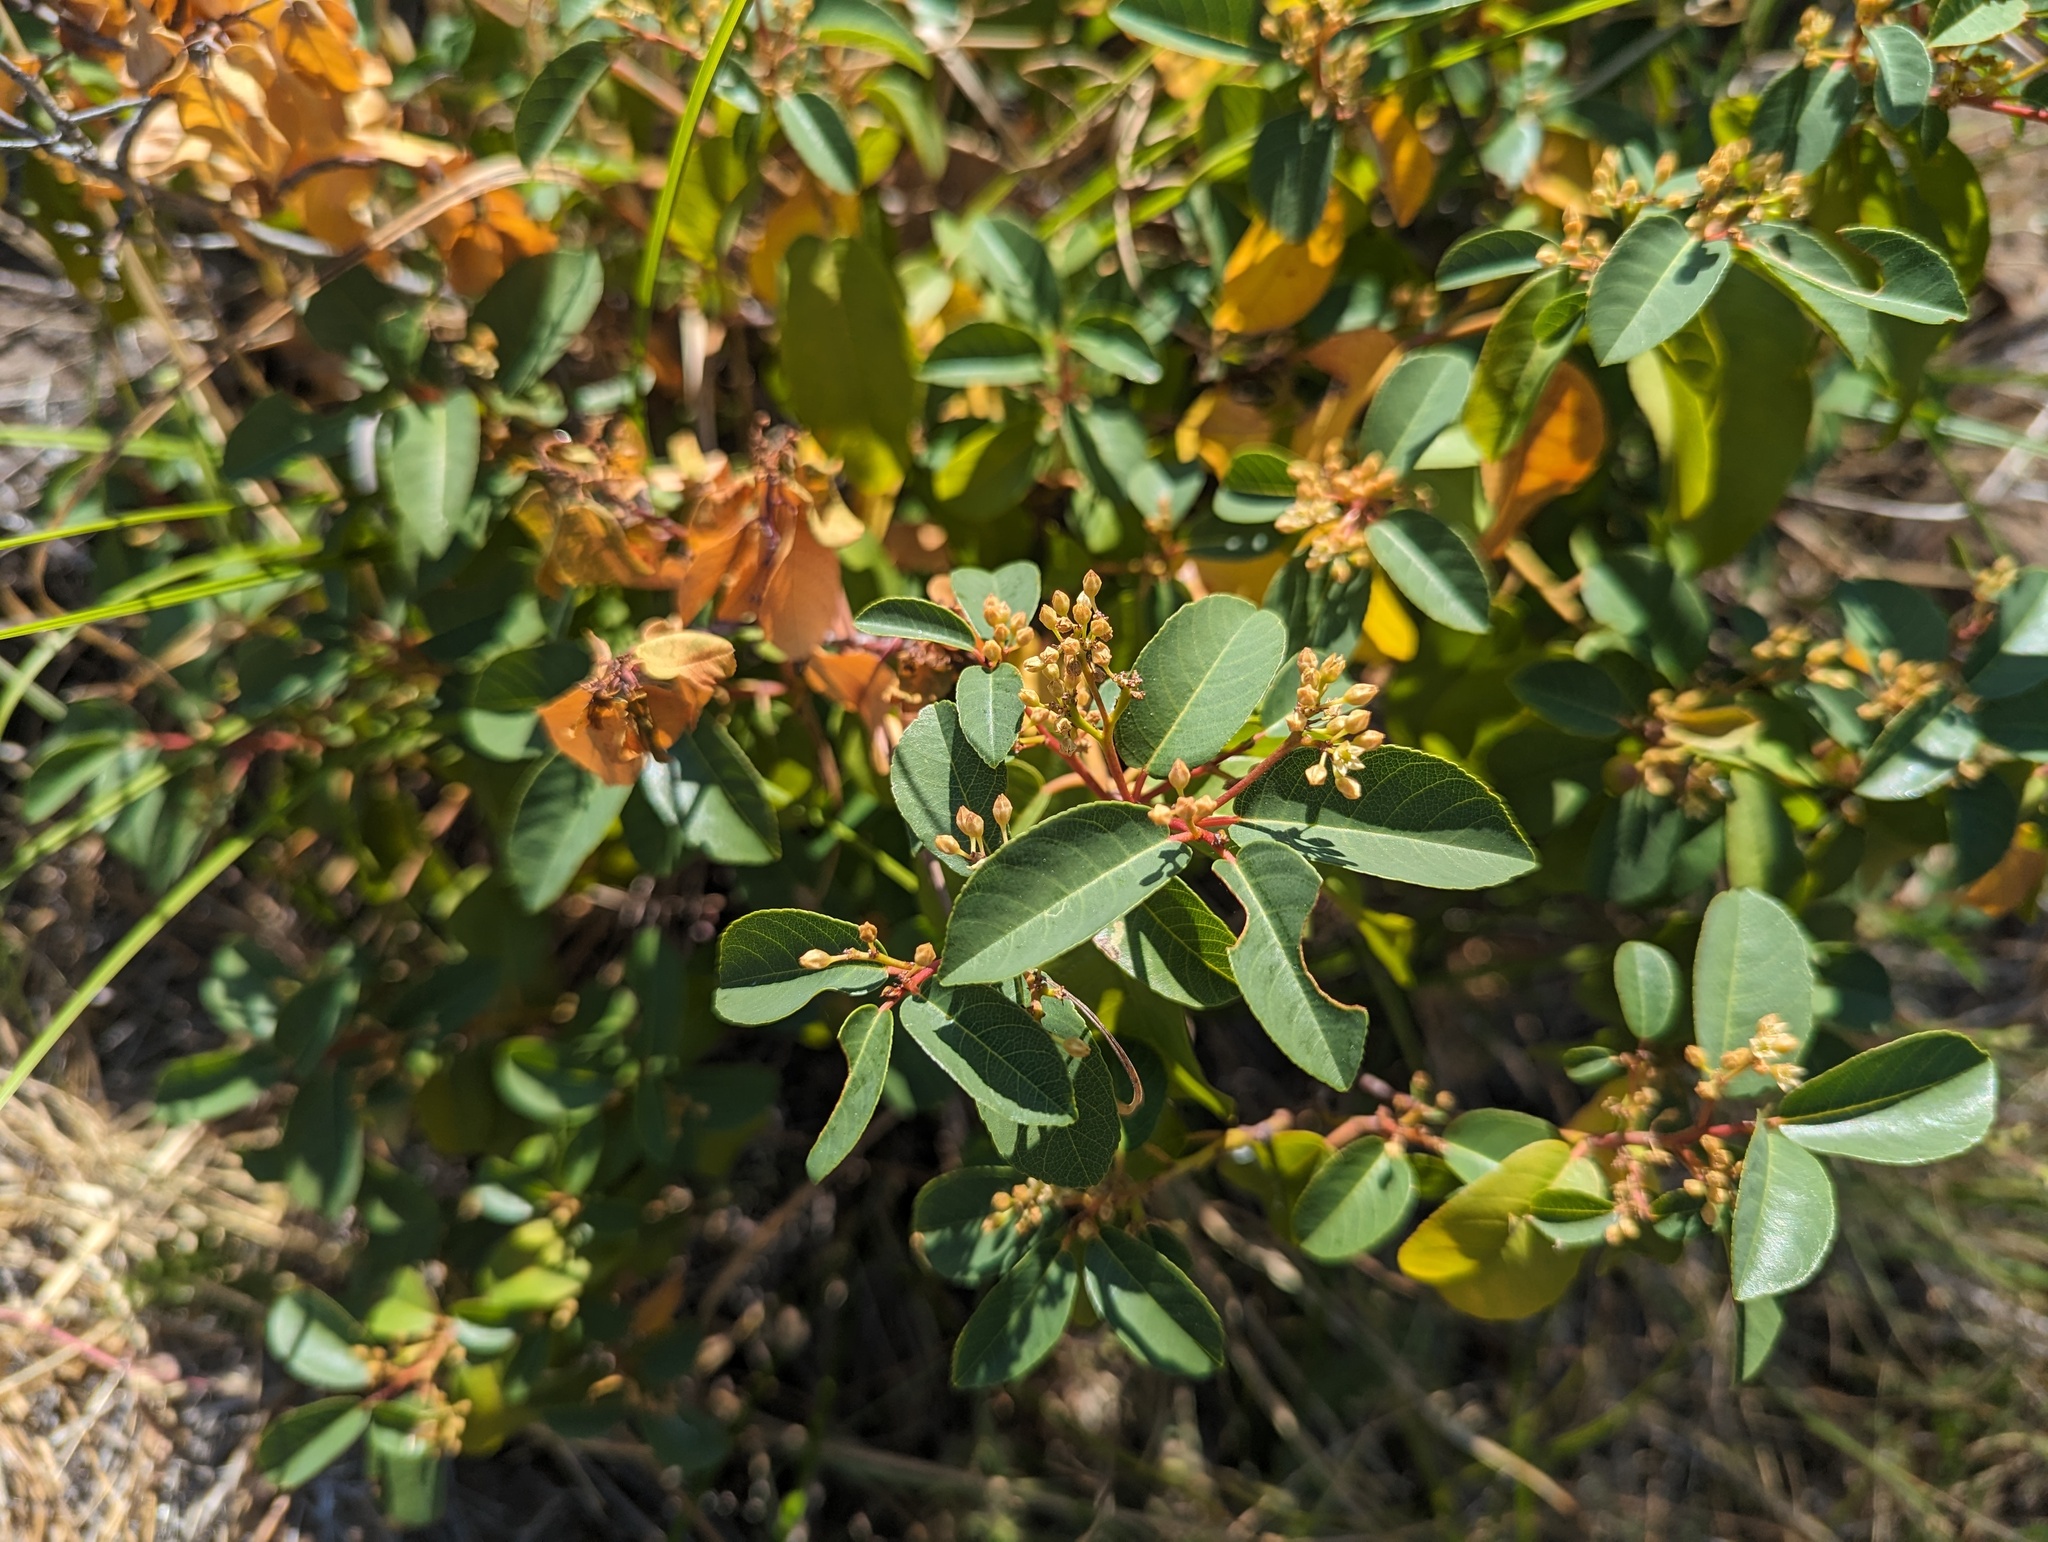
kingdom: Plantae
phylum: Tracheophyta
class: Magnoliopsida
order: Rosales
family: Rhamnaceae
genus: Frangula
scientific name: Frangula californica
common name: California buckthorn
